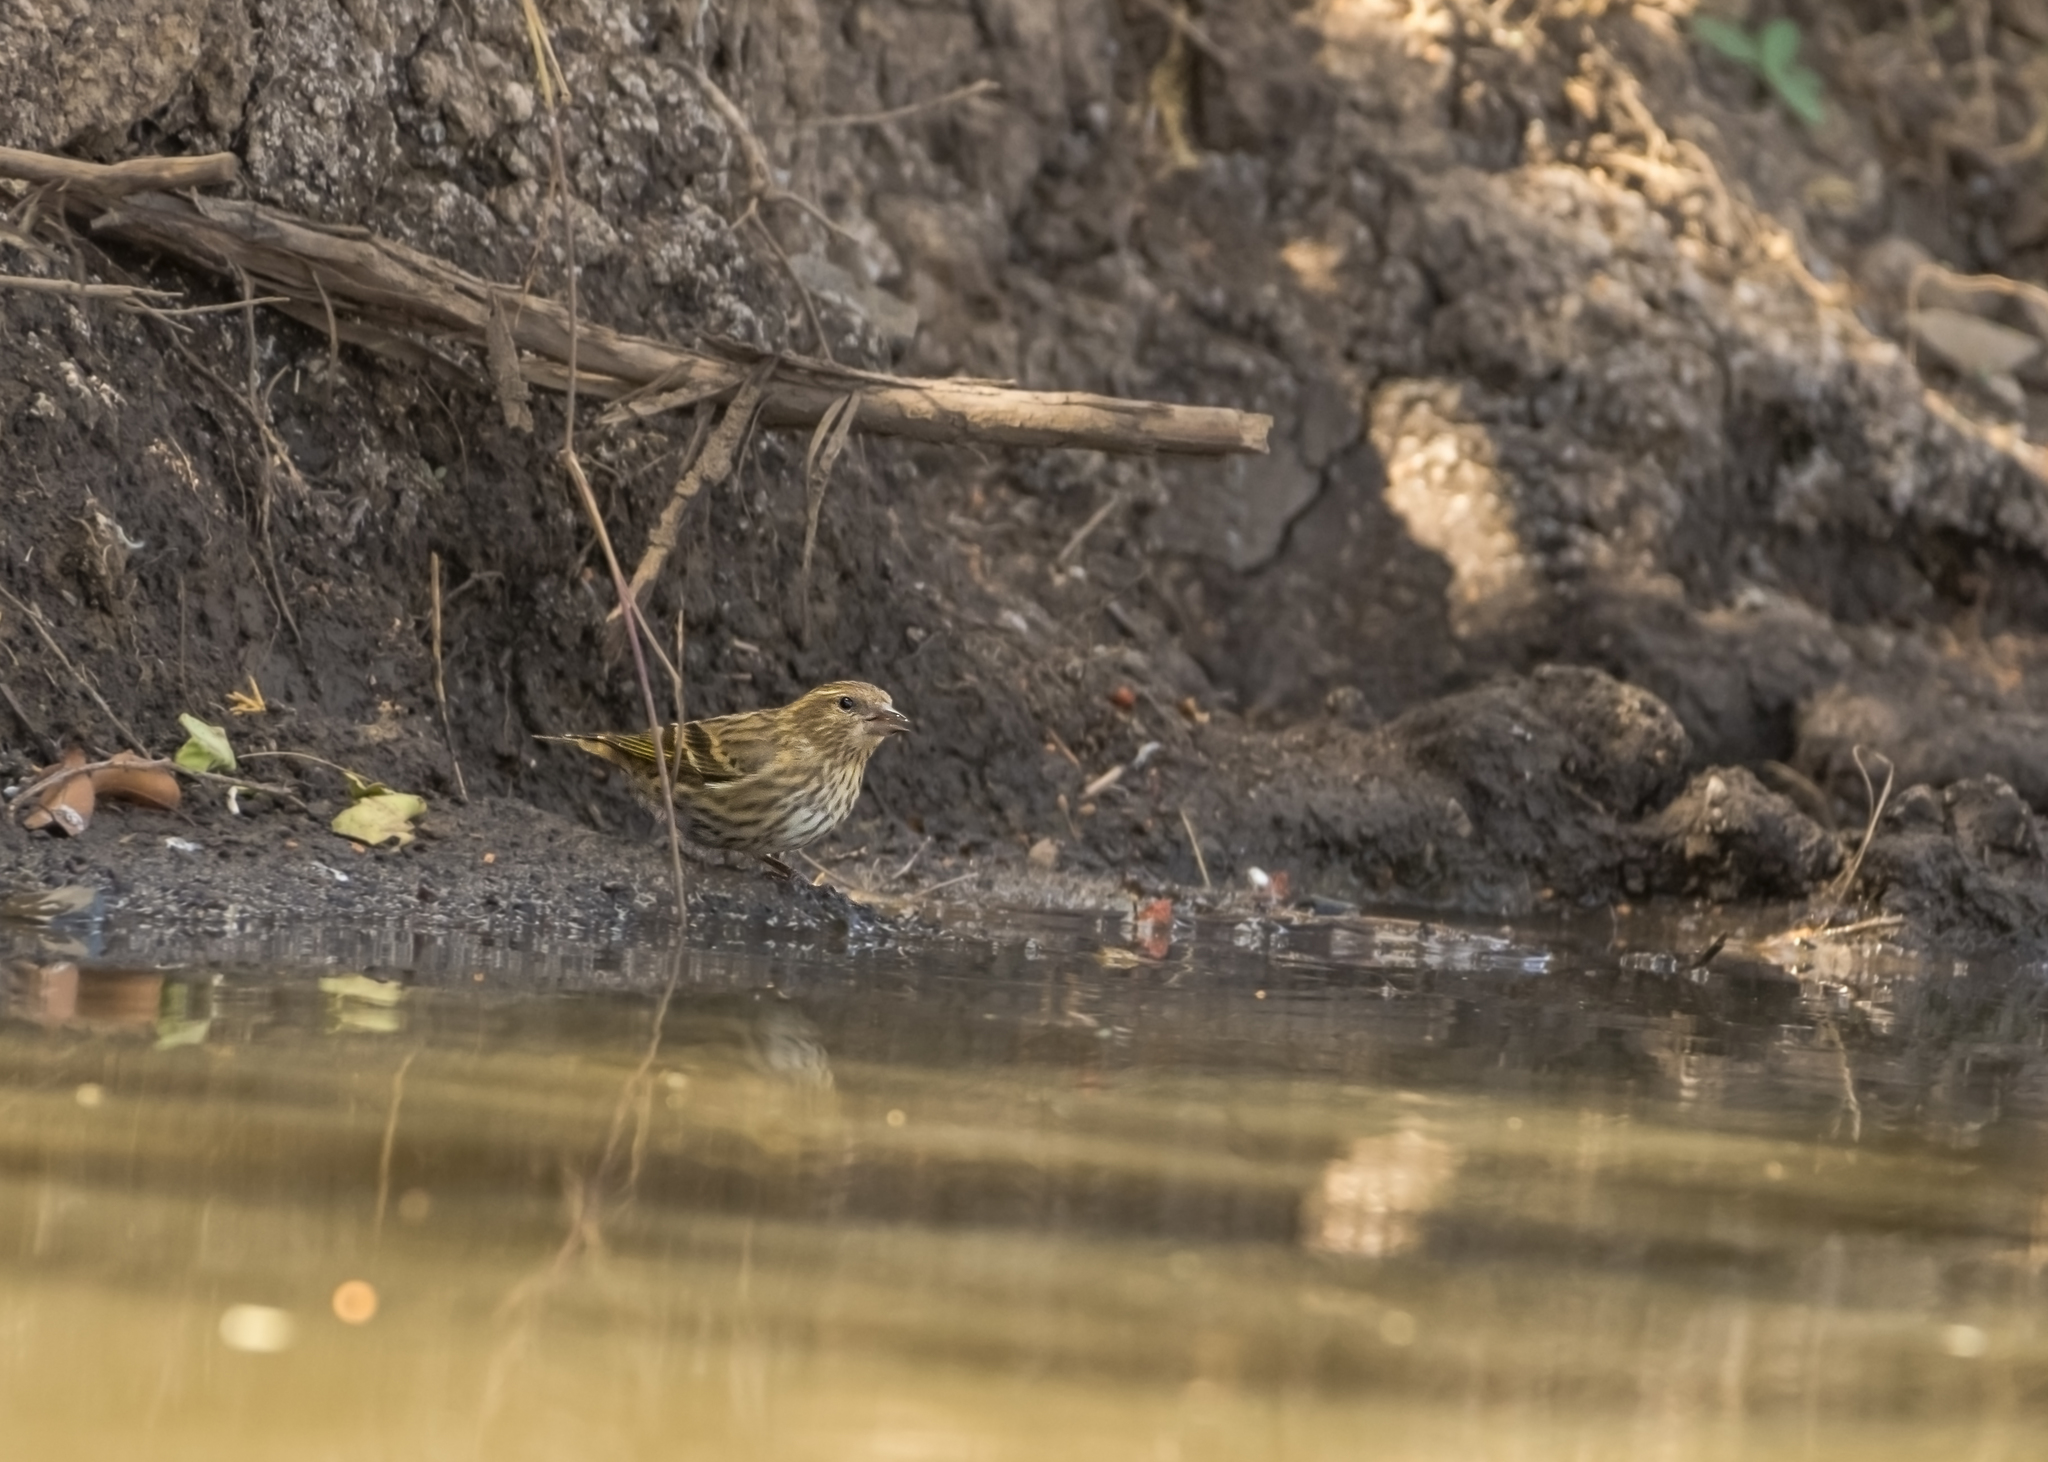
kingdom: Animalia
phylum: Chordata
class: Aves
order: Passeriformes
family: Fringillidae
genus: Spinus
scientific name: Spinus pinus
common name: Pine siskin
